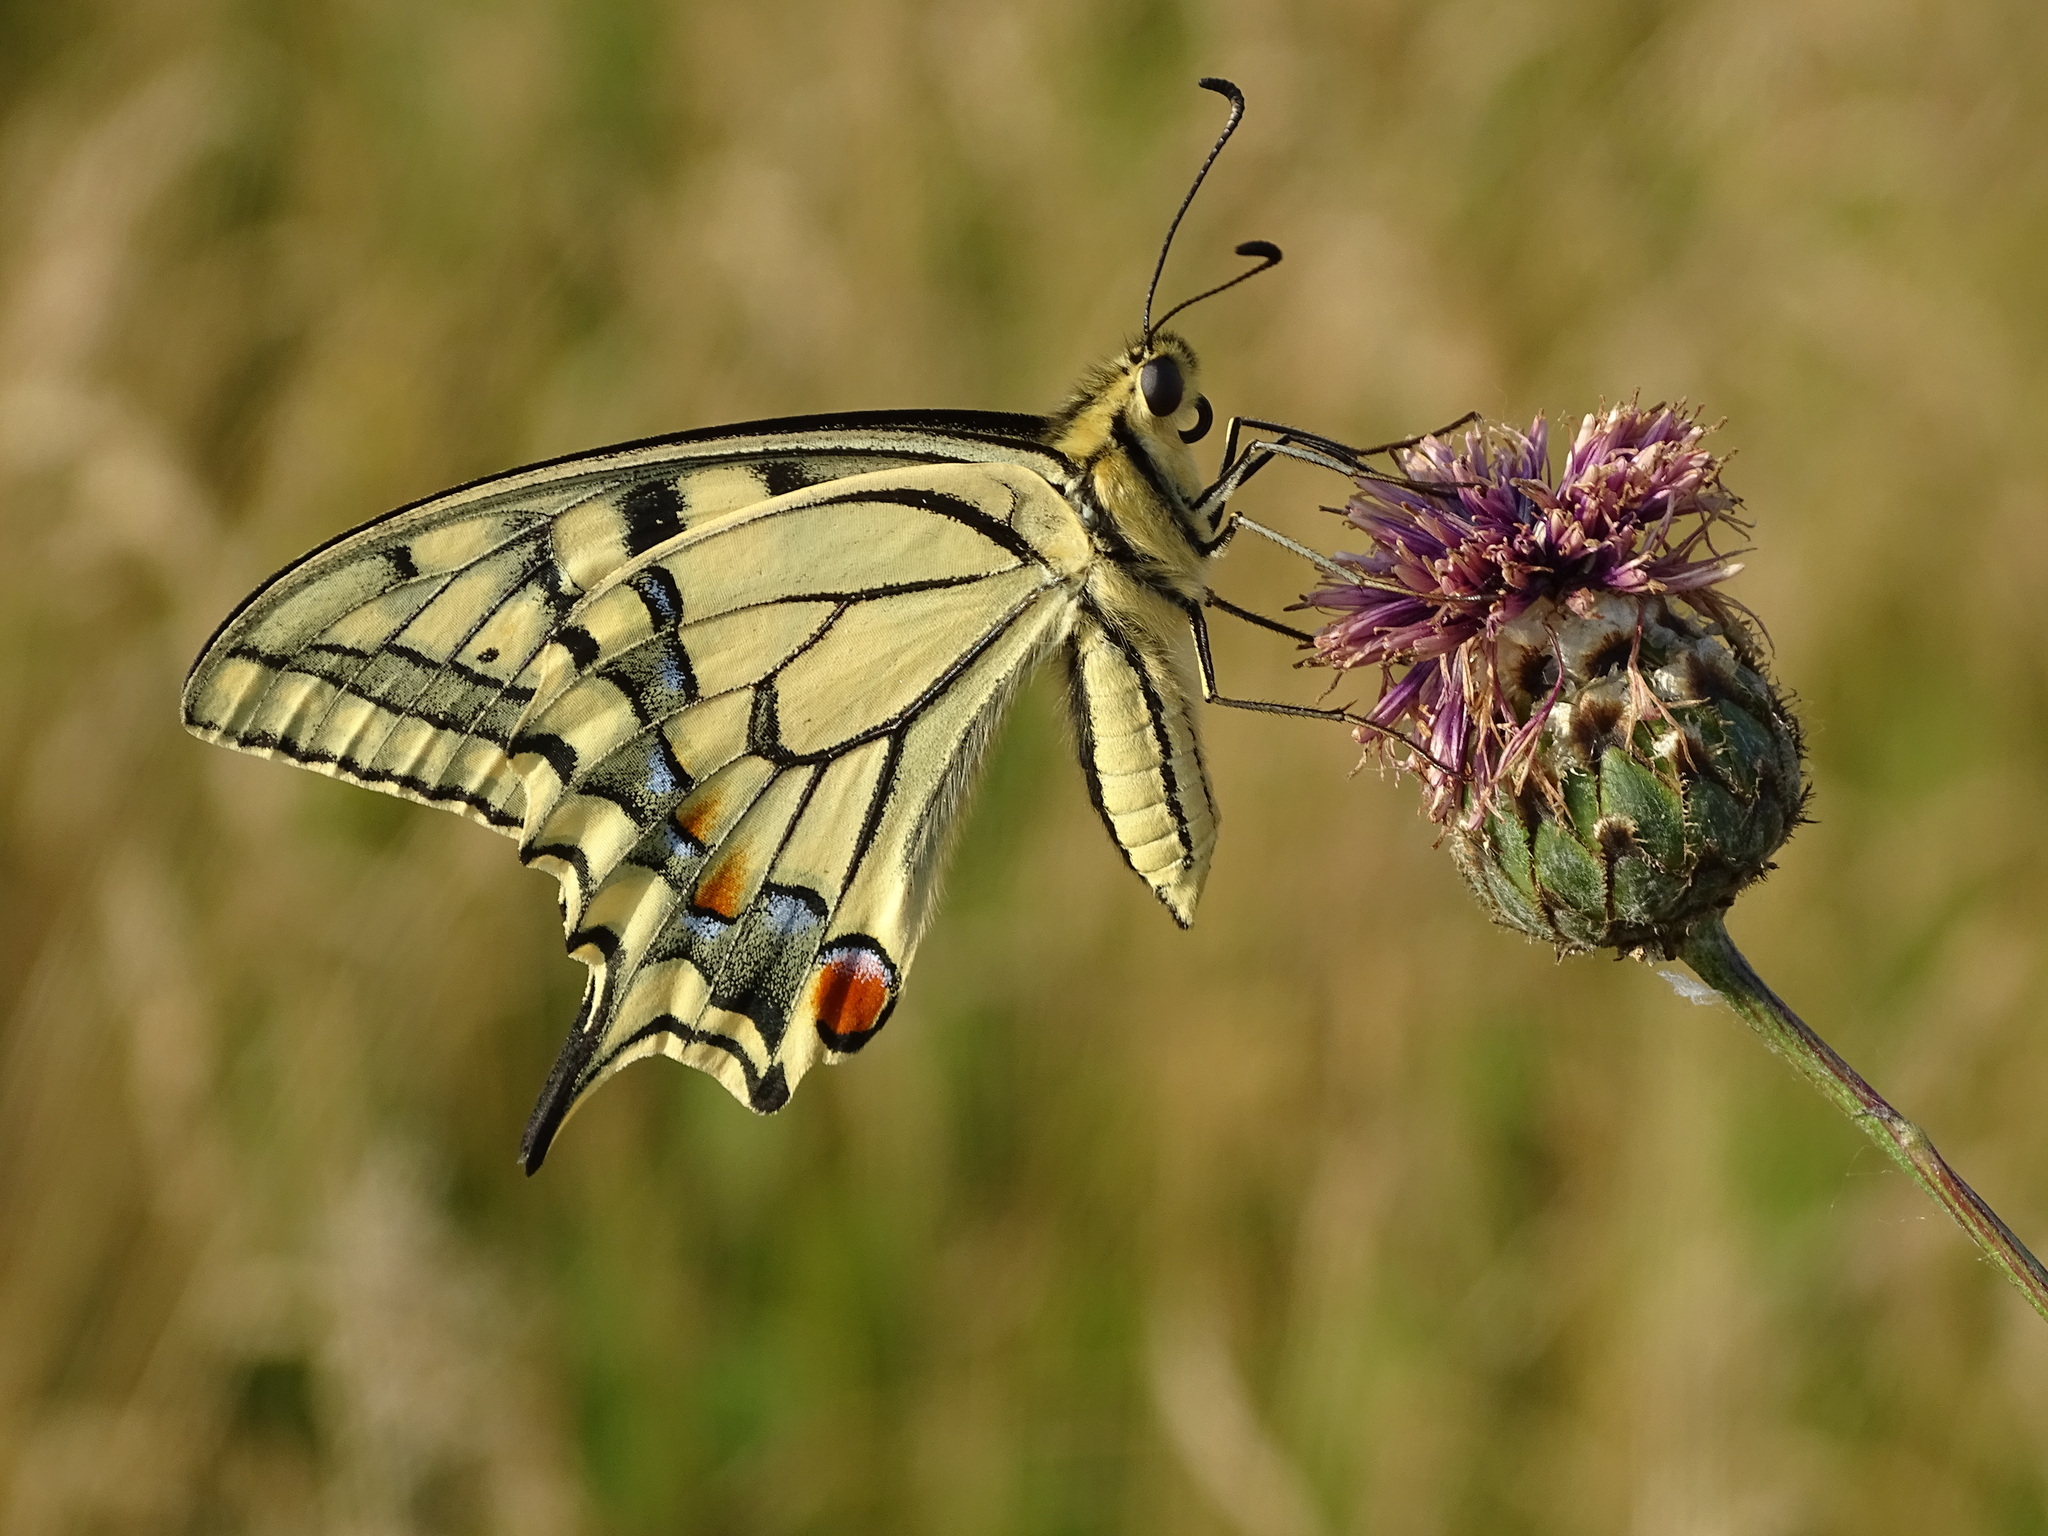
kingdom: Animalia
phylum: Arthropoda
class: Insecta
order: Lepidoptera
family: Papilionidae
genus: Papilio
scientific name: Papilio machaon
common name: Swallowtail
